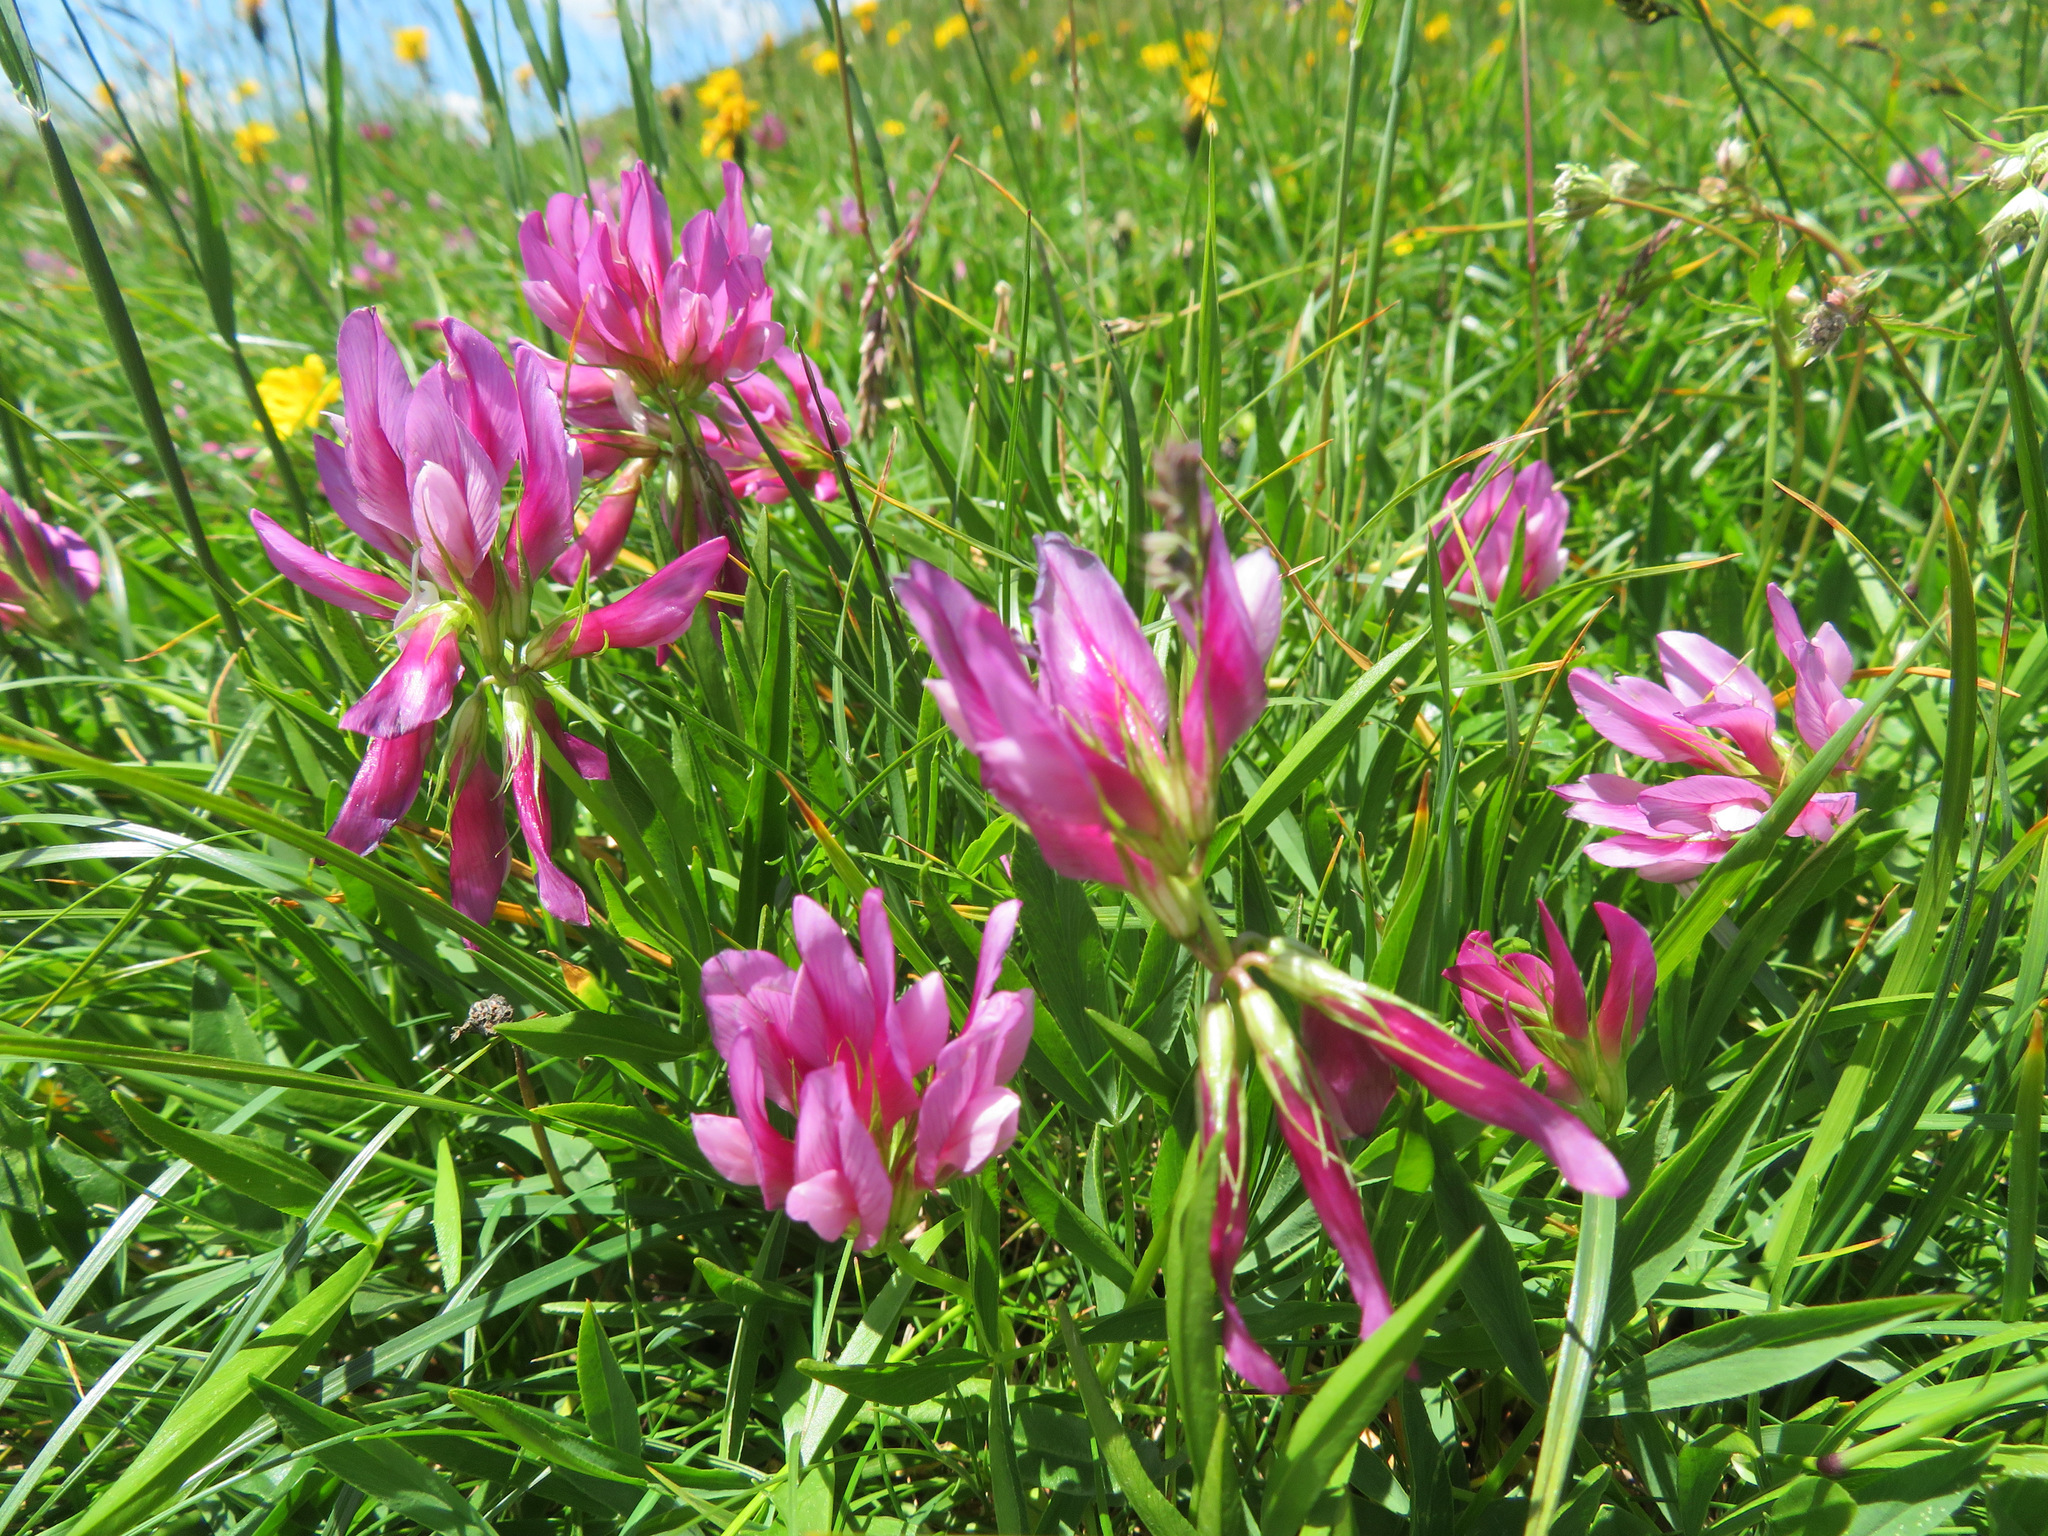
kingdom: Plantae
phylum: Tracheophyta
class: Magnoliopsida
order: Fabales
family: Fabaceae
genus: Trifolium
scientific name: Trifolium alpinum
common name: Alpine clover
